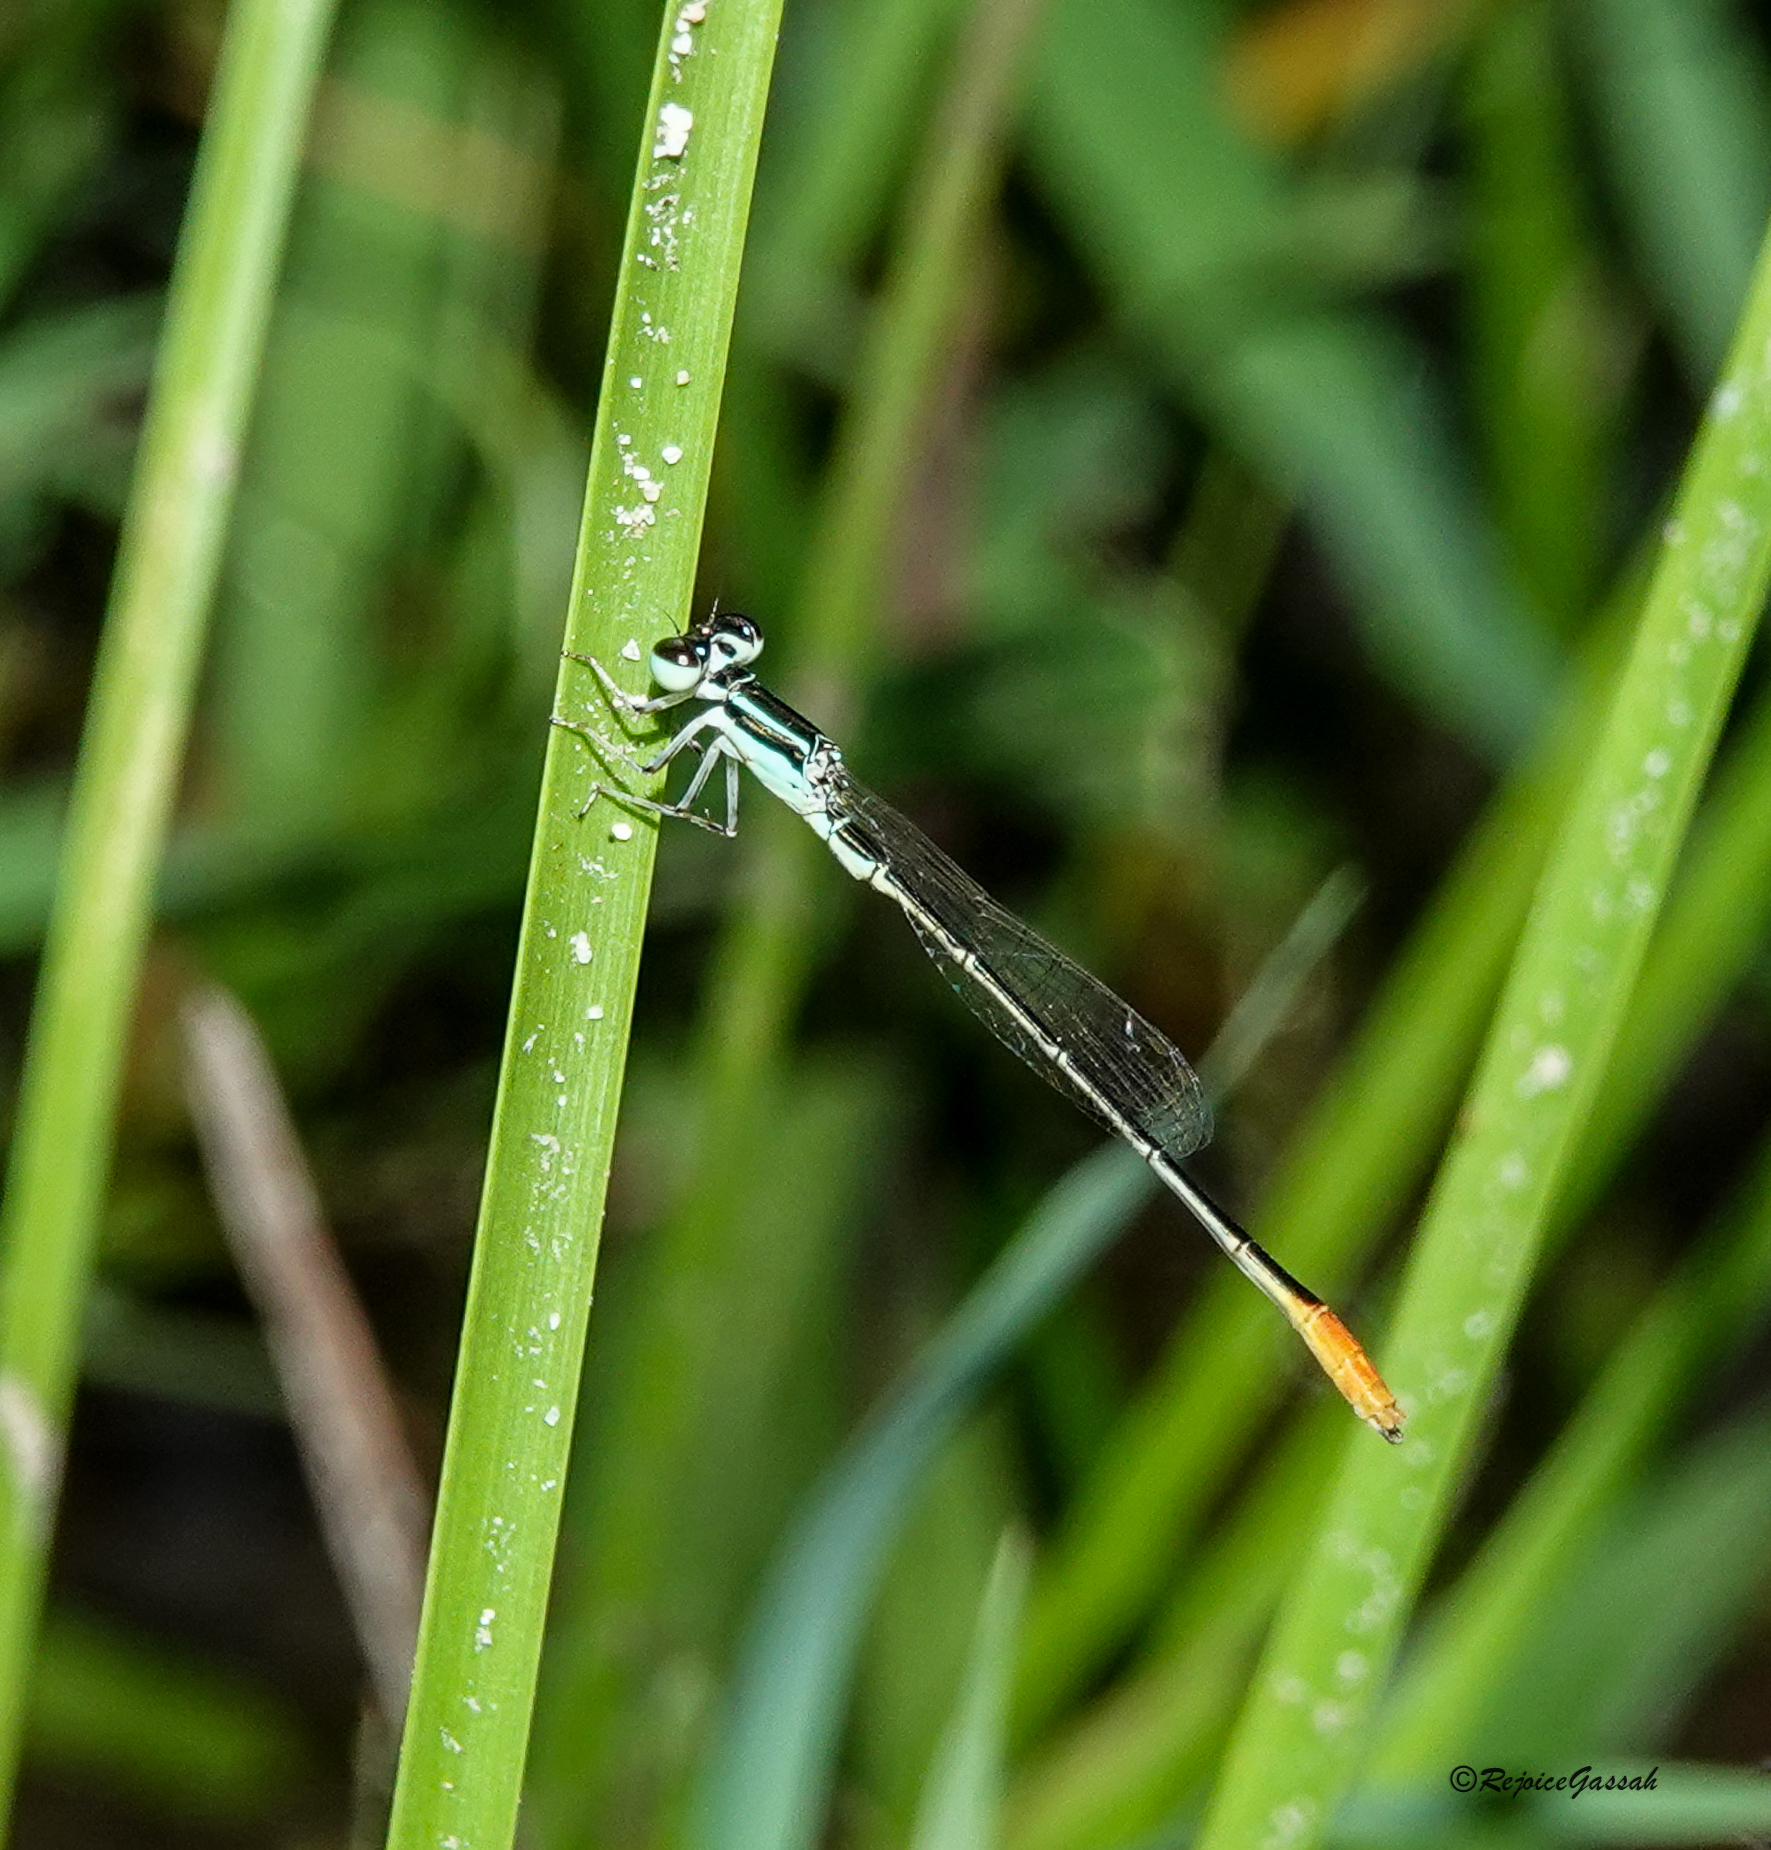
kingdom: Animalia
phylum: Arthropoda
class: Insecta
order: Odonata
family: Coenagrionidae
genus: Agriocnemis
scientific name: Agriocnemis femina
